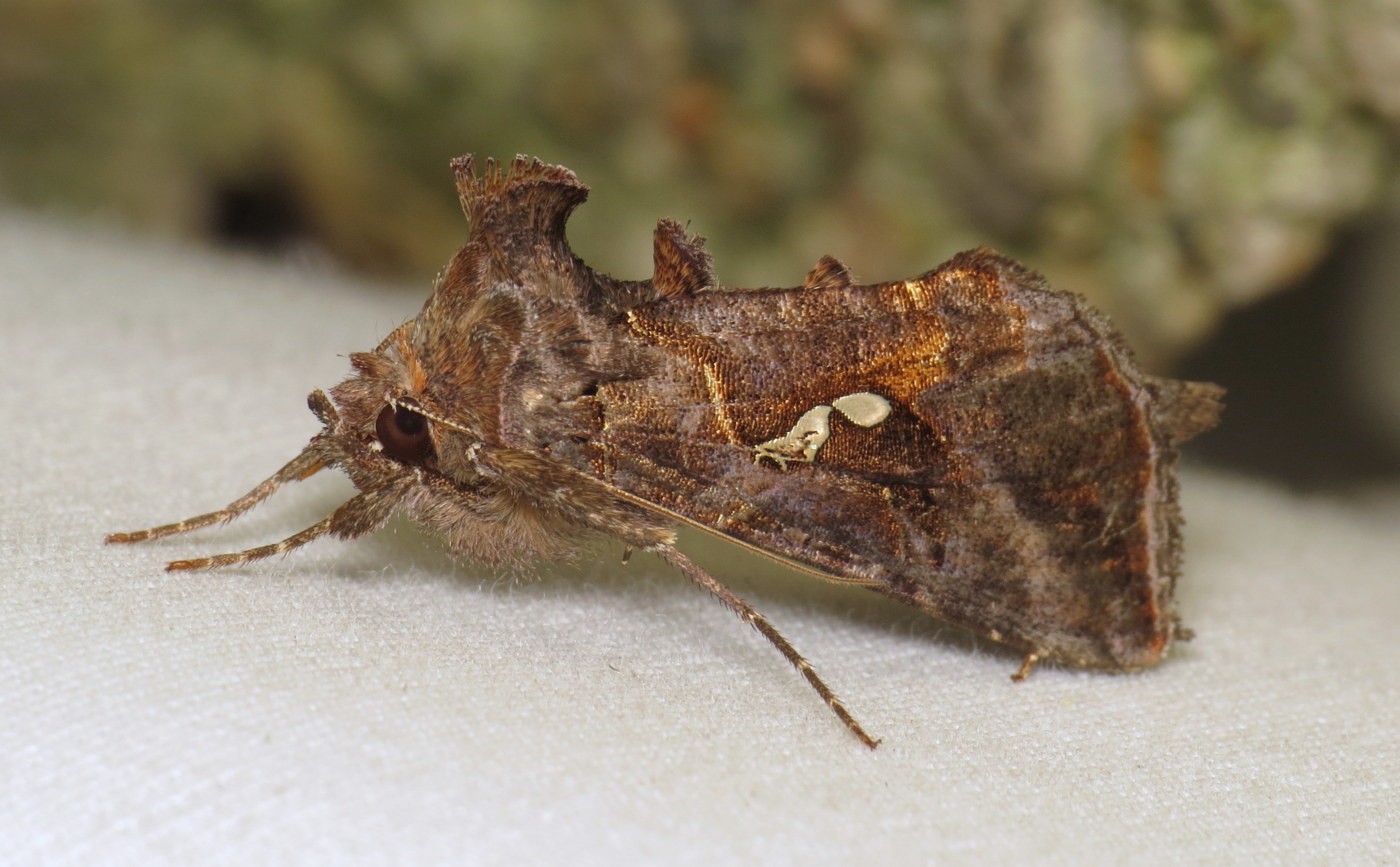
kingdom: Animalia
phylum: Arthropoda
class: Insecta
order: Lepidoptera
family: Noctuidae
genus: Autographa
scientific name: Autographa precationis
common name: Common looper moth
